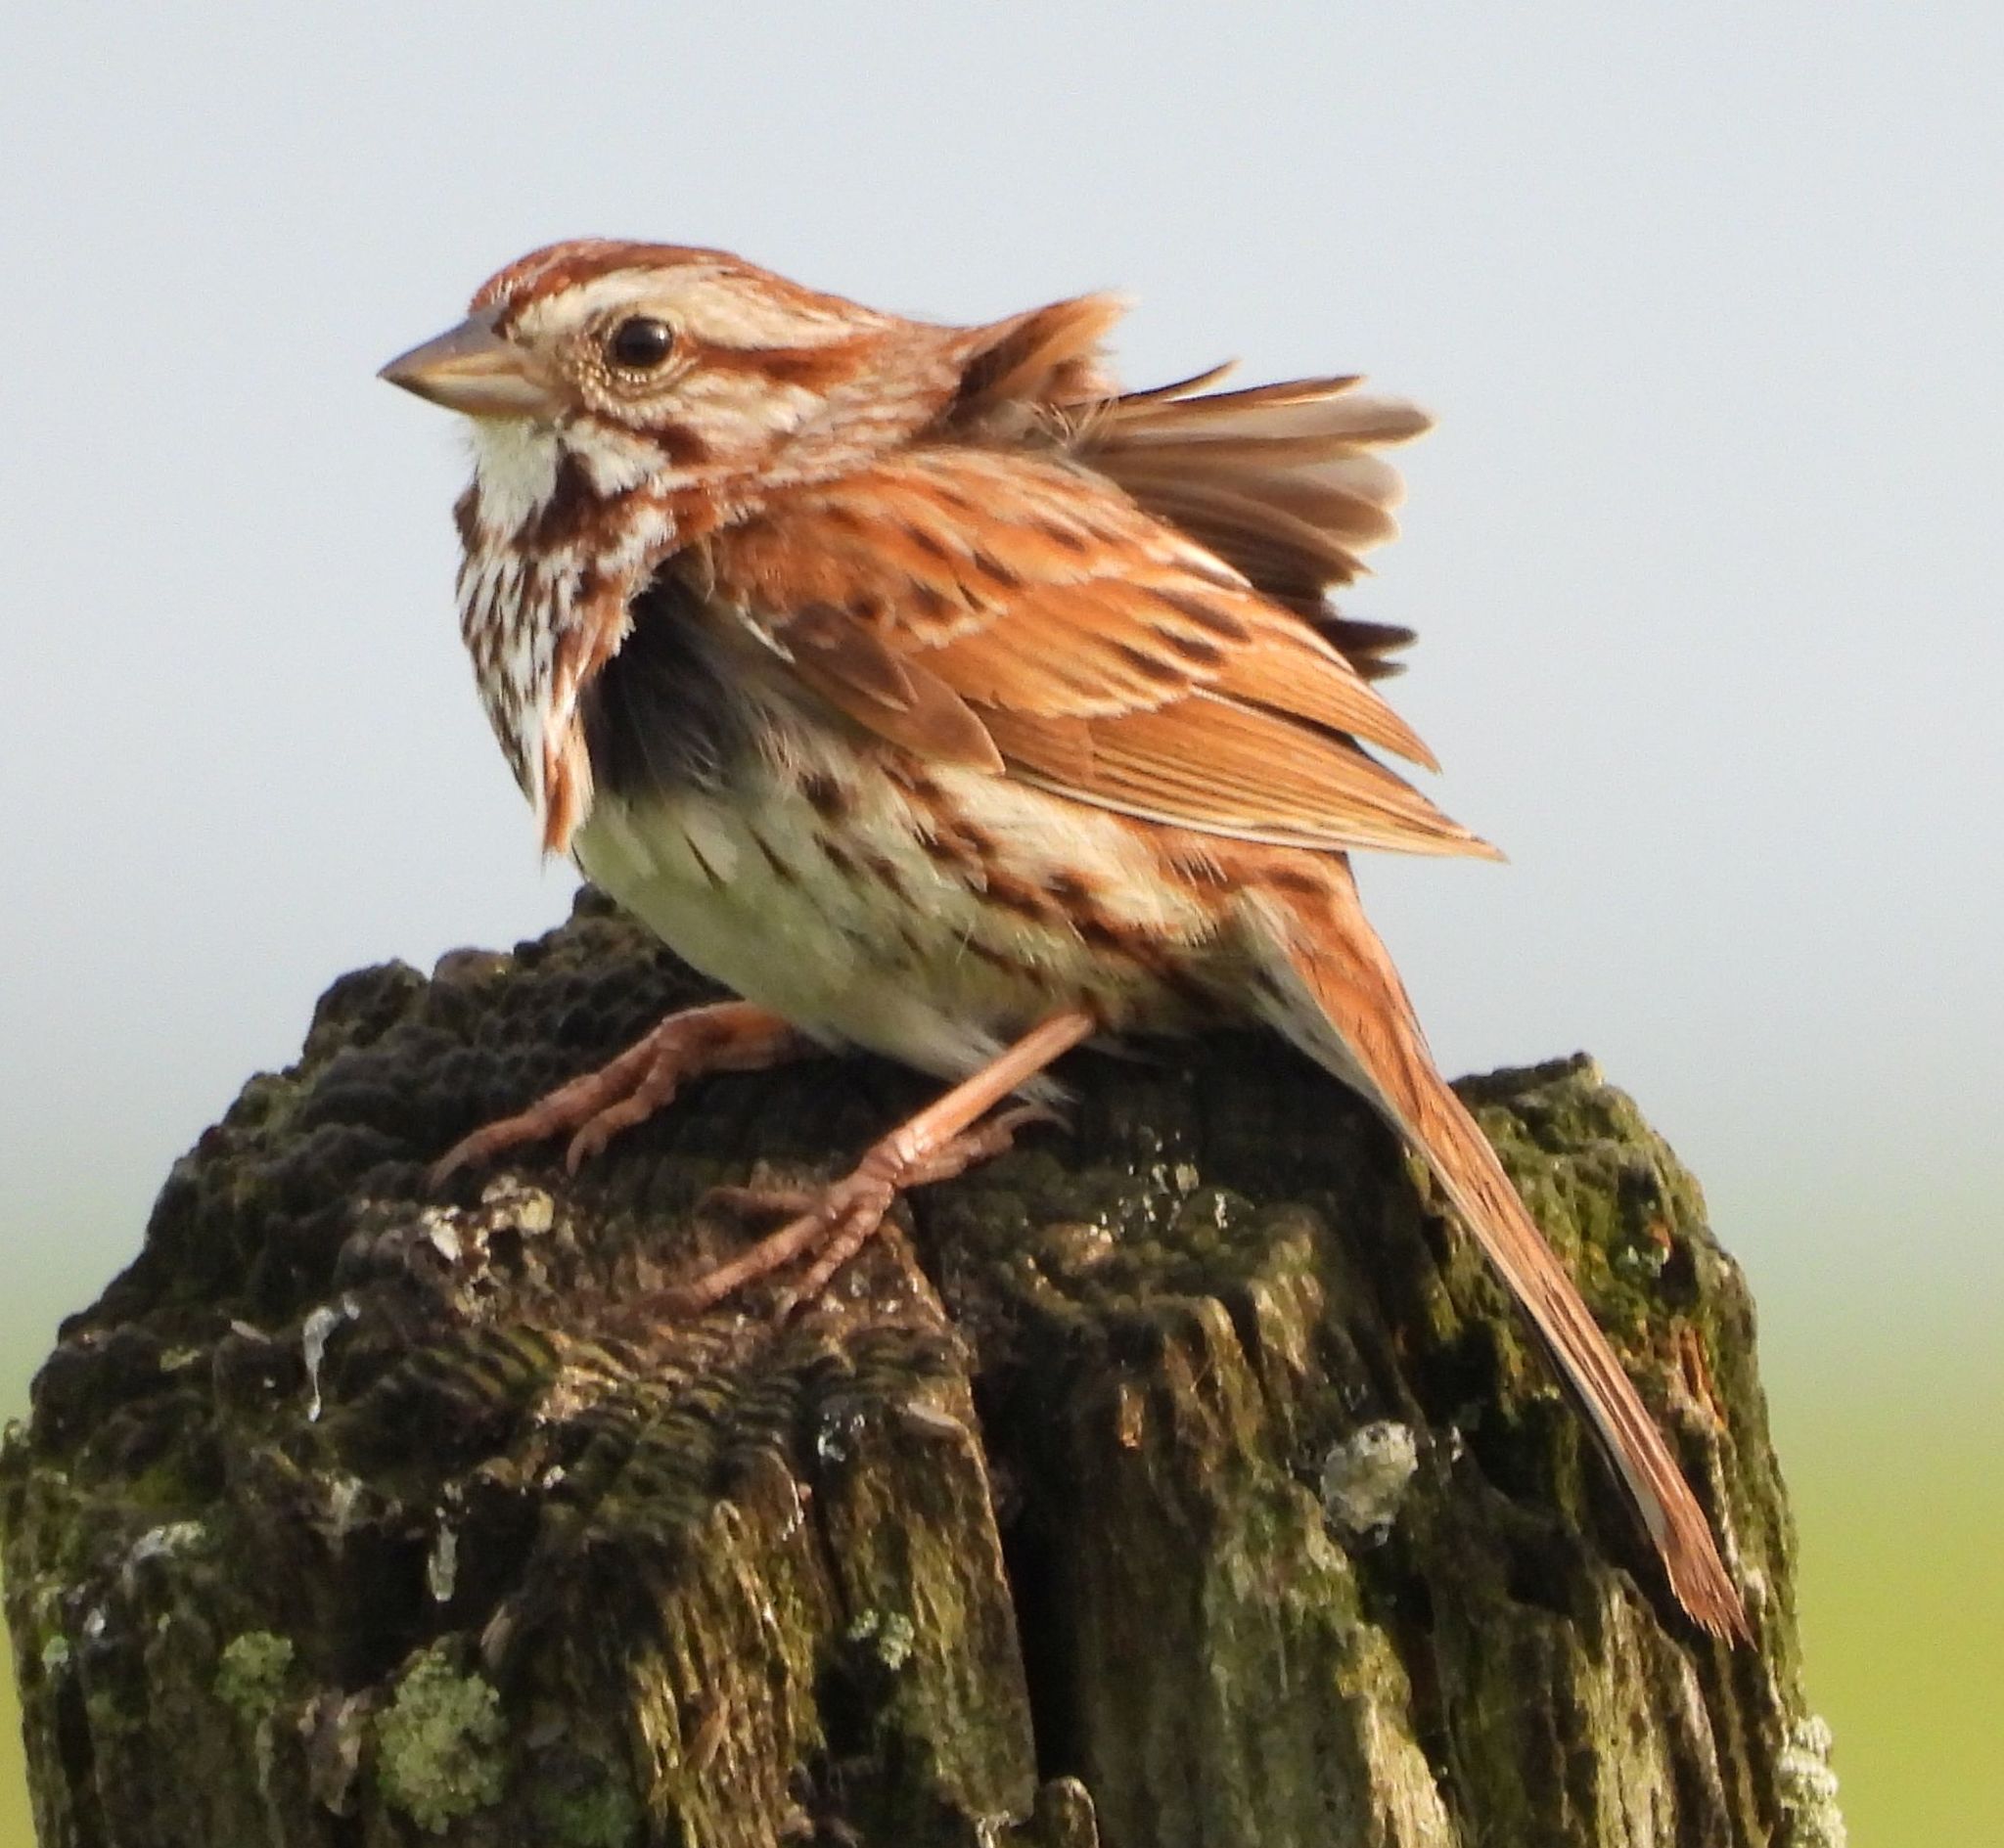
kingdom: Animalia
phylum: Chordata
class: Aves
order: Passeriformes
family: Passerellidae
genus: Melospiza
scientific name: Melospiza melodia
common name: Song sparrow
